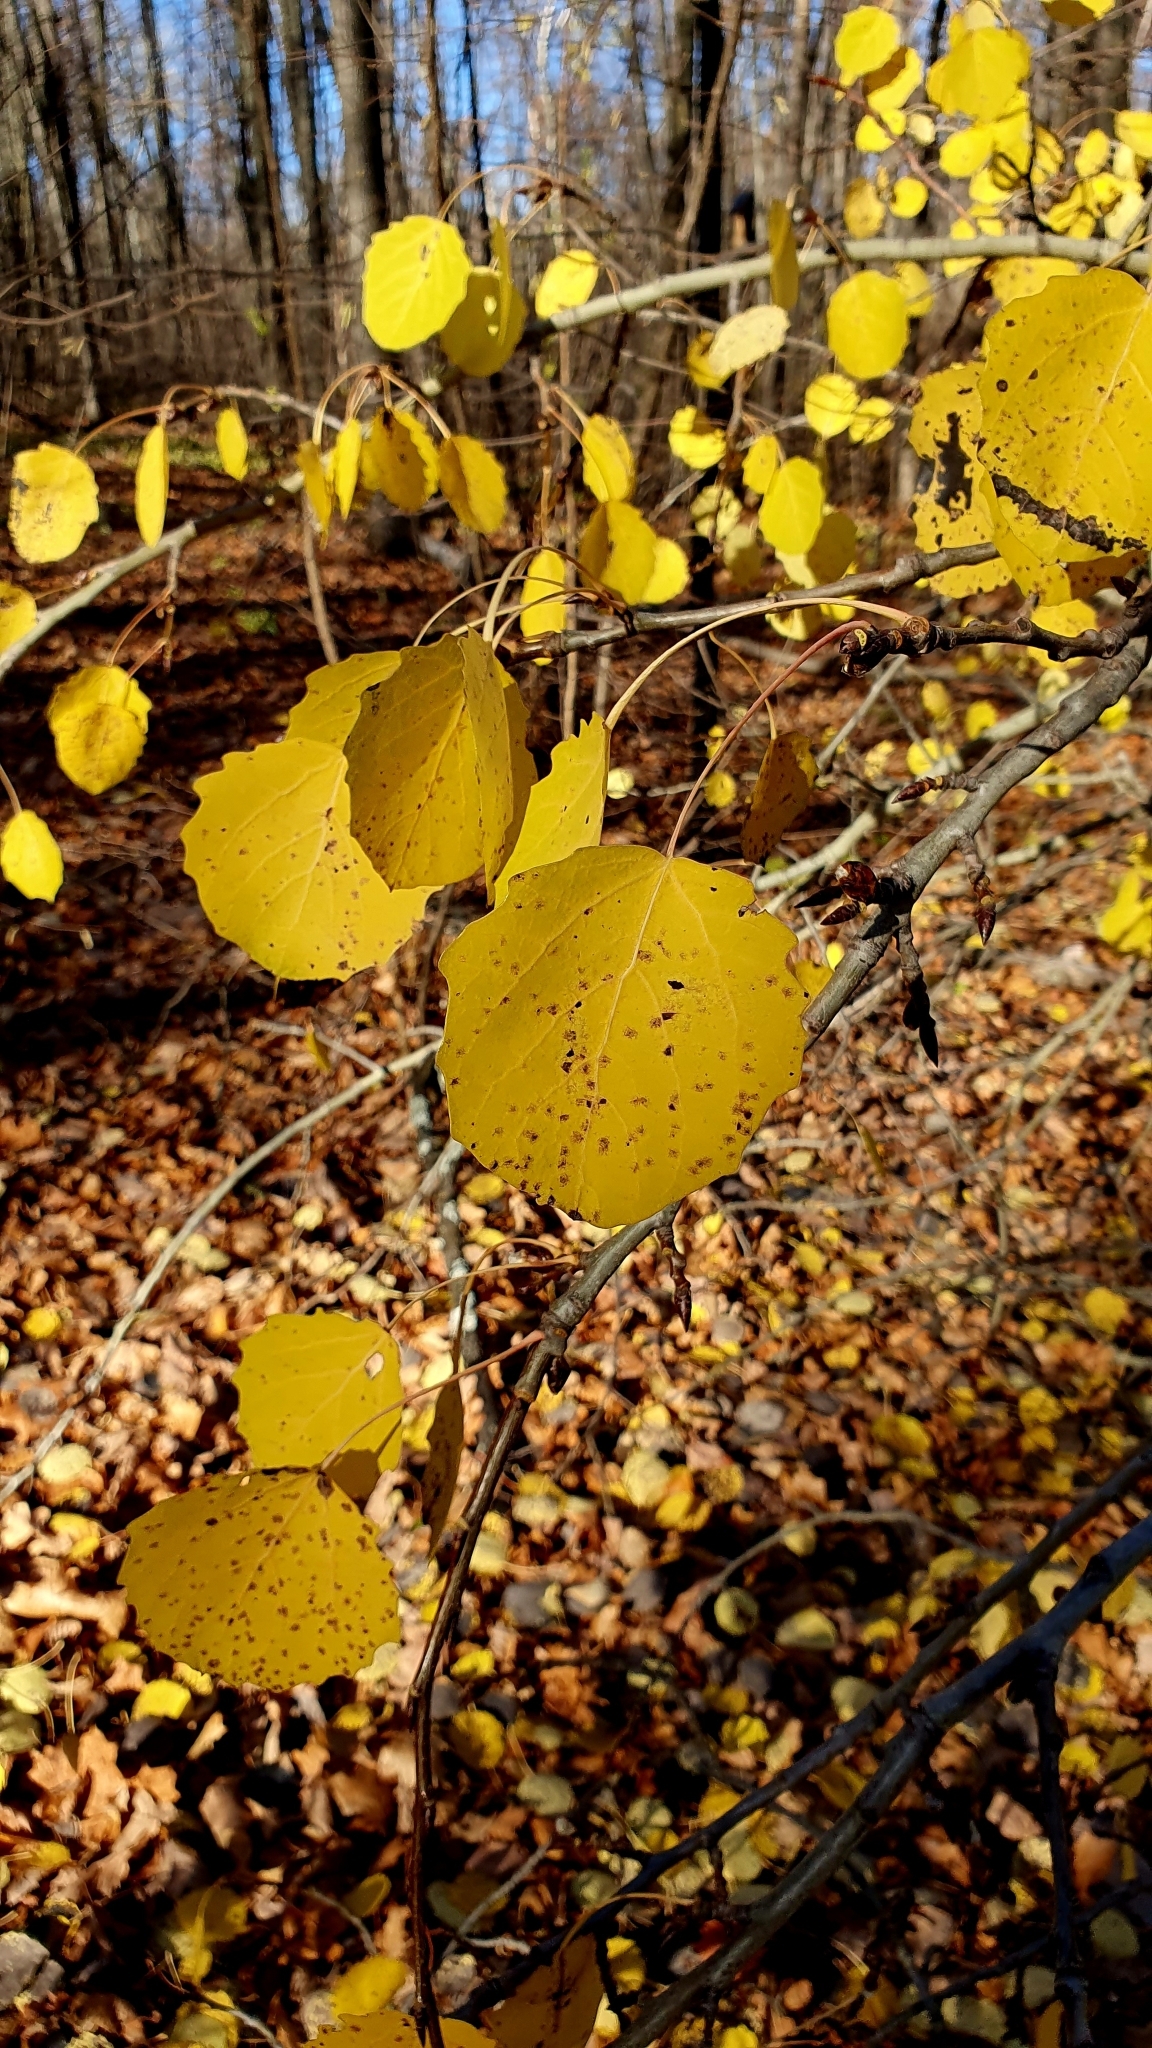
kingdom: Plantae
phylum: Tracheophyta
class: Magnoliopsida
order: Malpighiales
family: Salicaceae
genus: Populus
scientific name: Populus tremula
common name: European aspen
